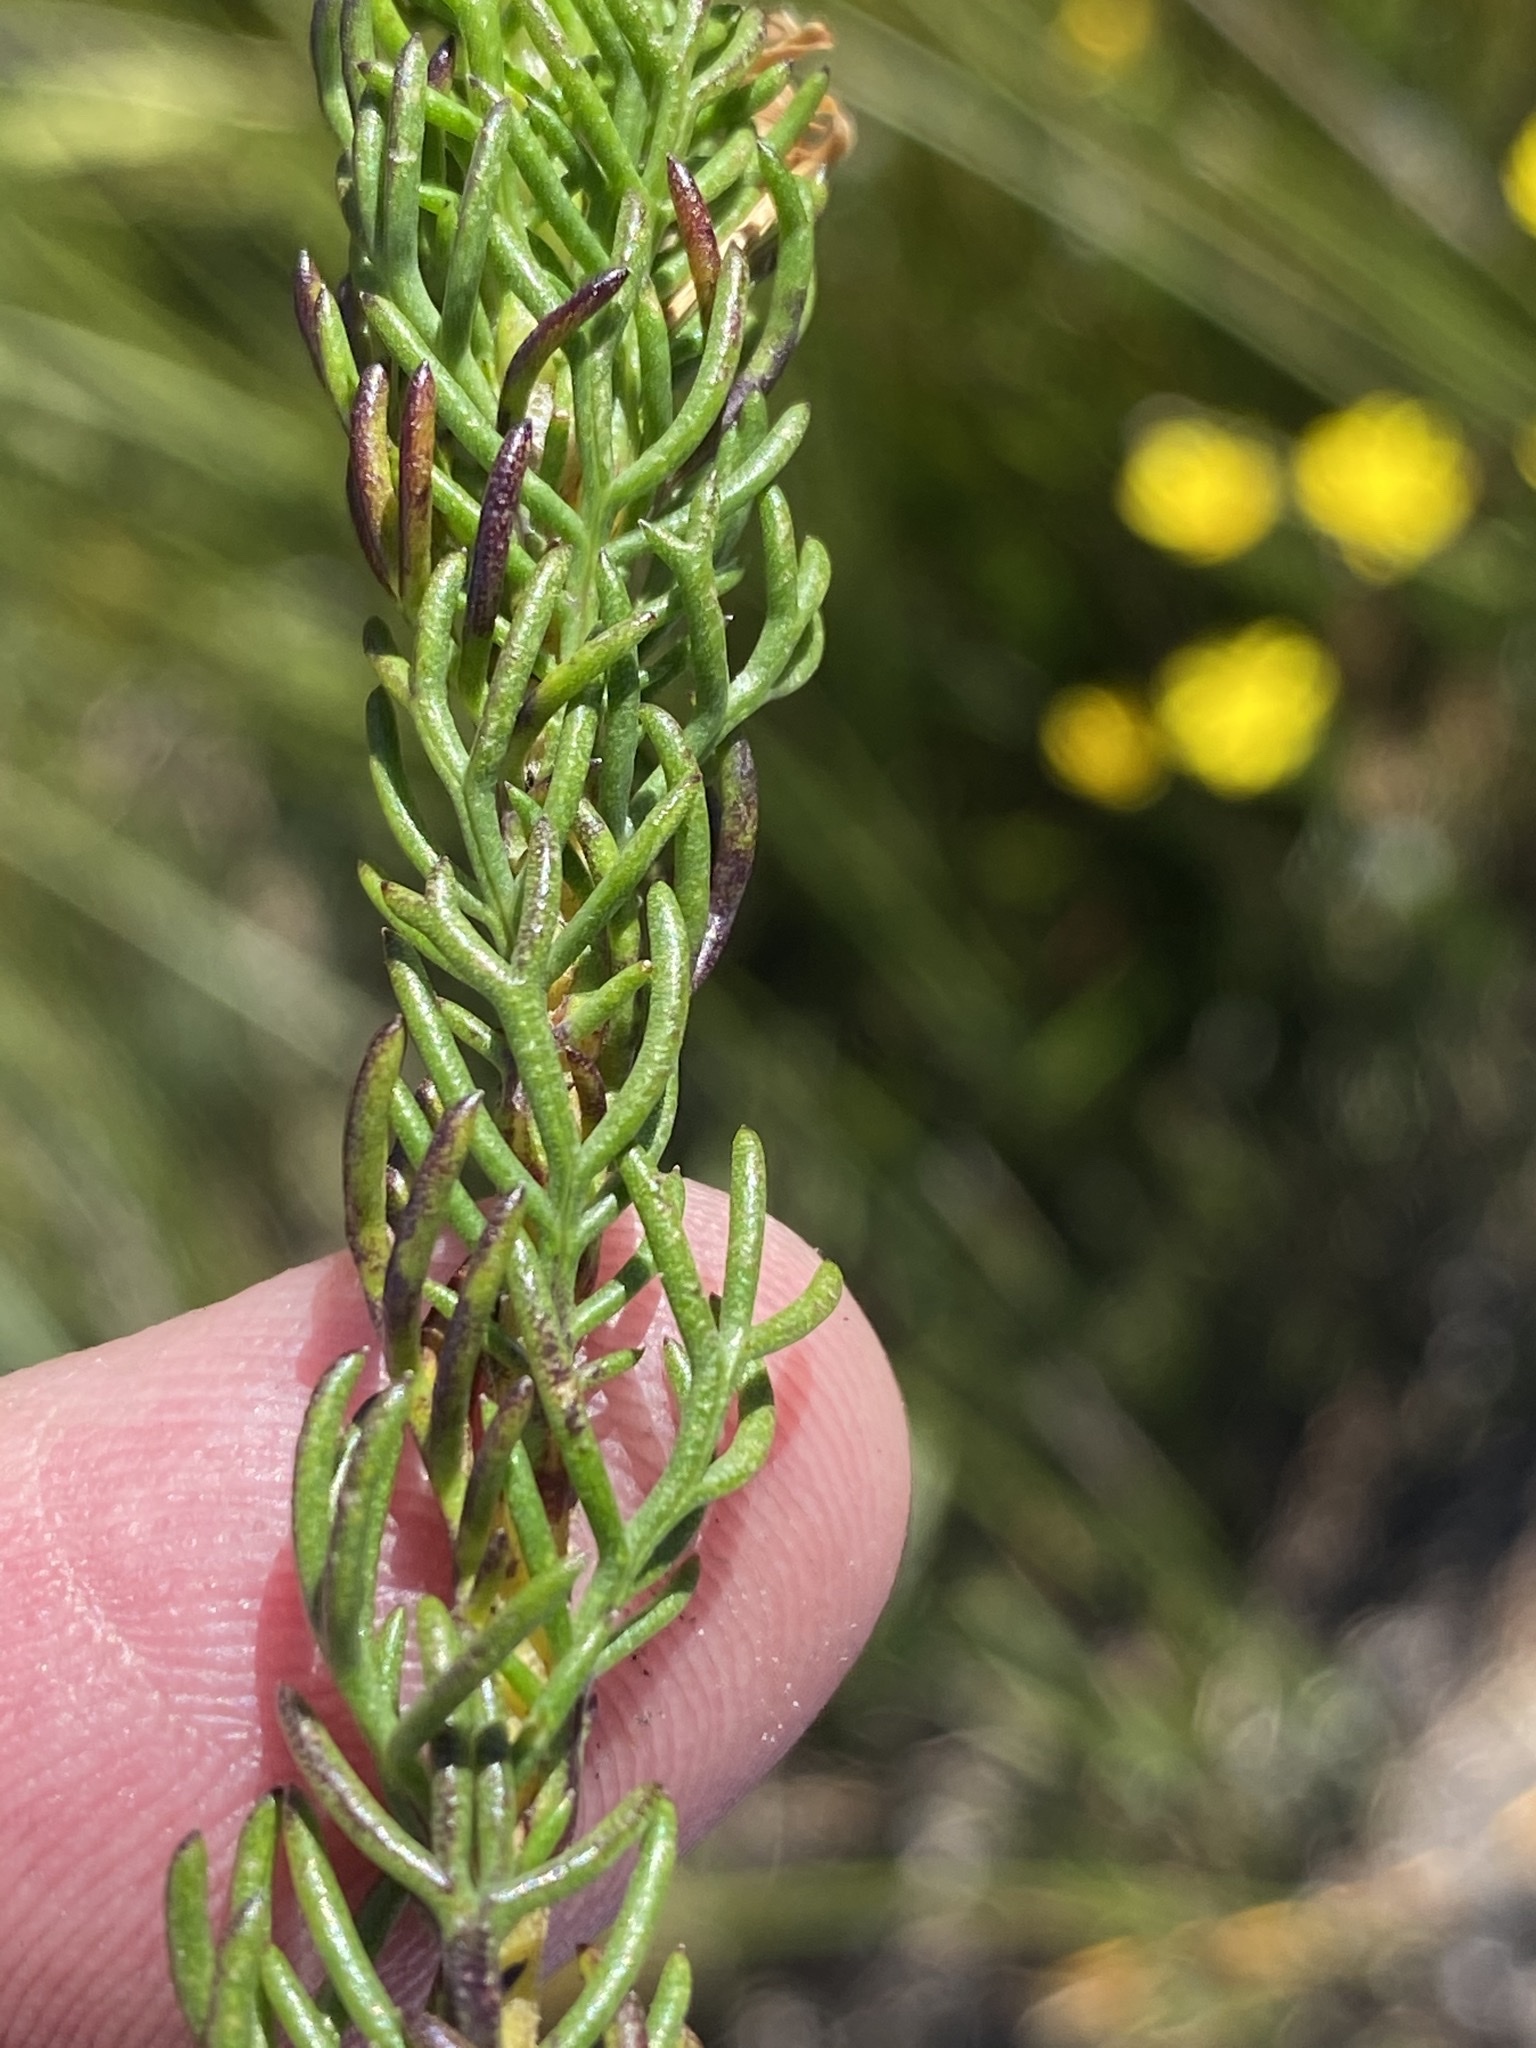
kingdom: Plantae
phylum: Tracheophyta
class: Magnoliopsida
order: Asterales
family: Asteraceae
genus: Euryops
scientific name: Euryops pinnatipartitus
